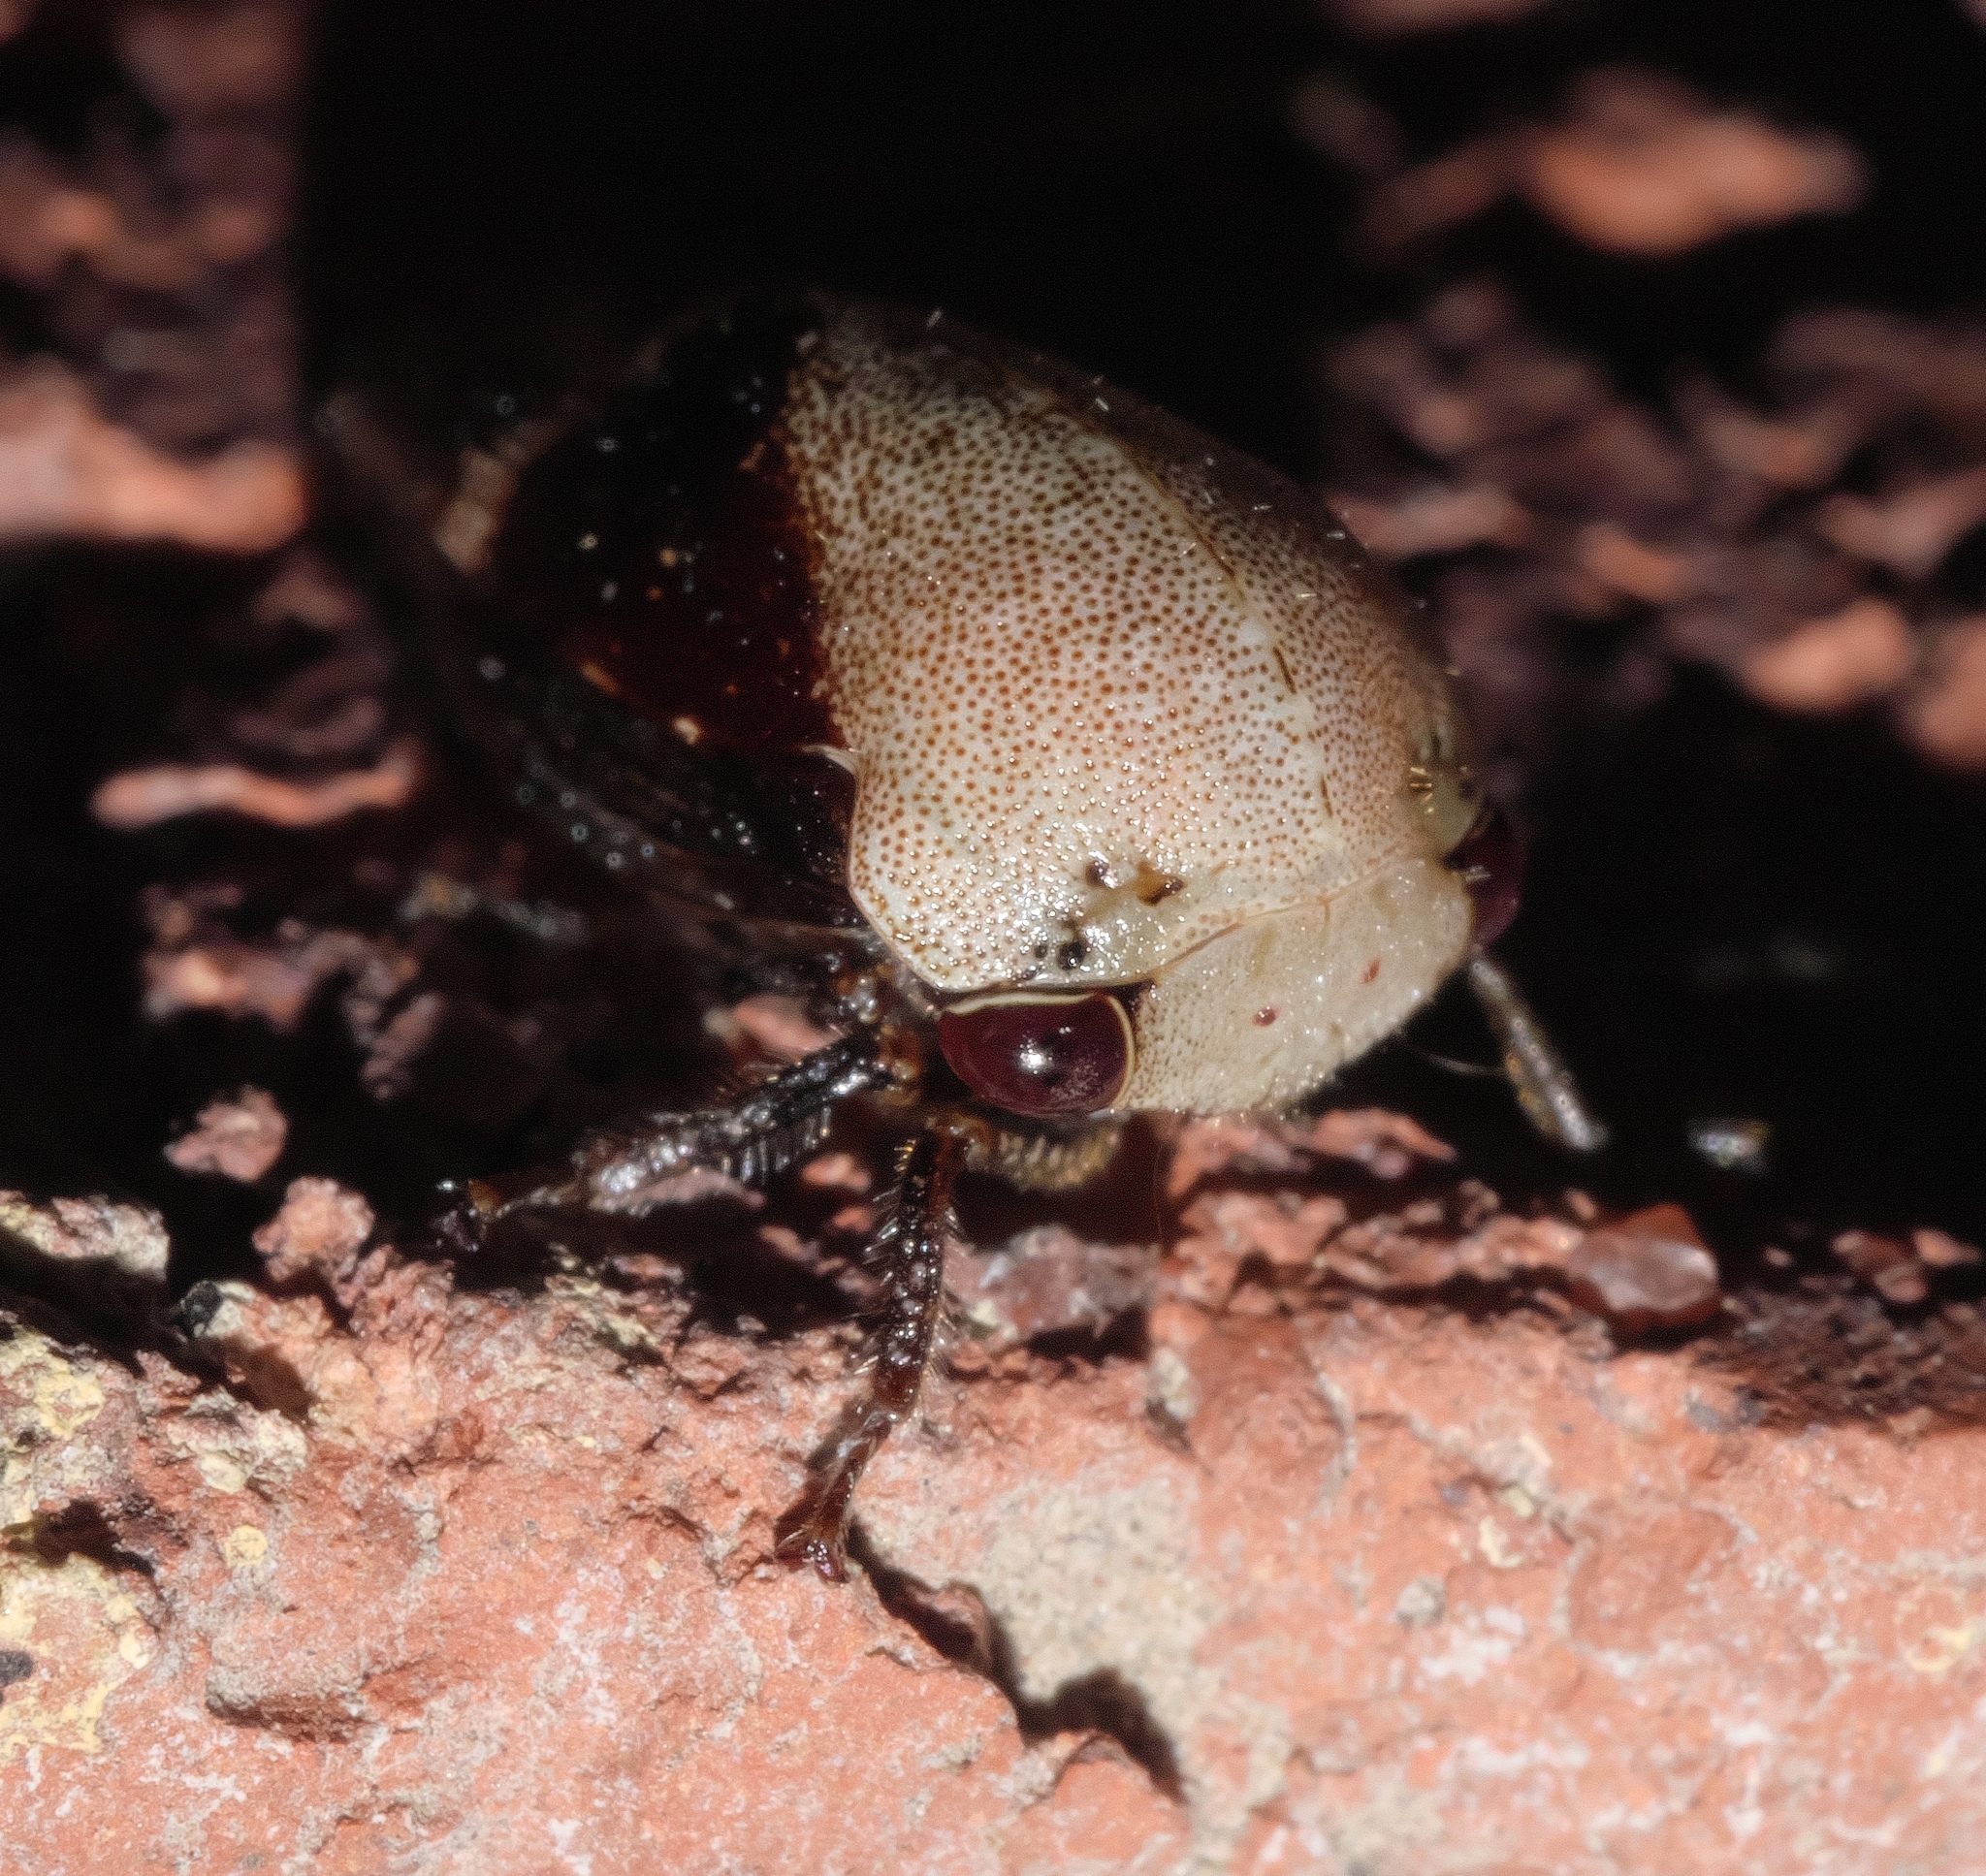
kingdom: Animalia
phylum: Arthropoda
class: Insecta
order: Hemiptera
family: Membracidae
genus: Carynota
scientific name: Carynota mera
